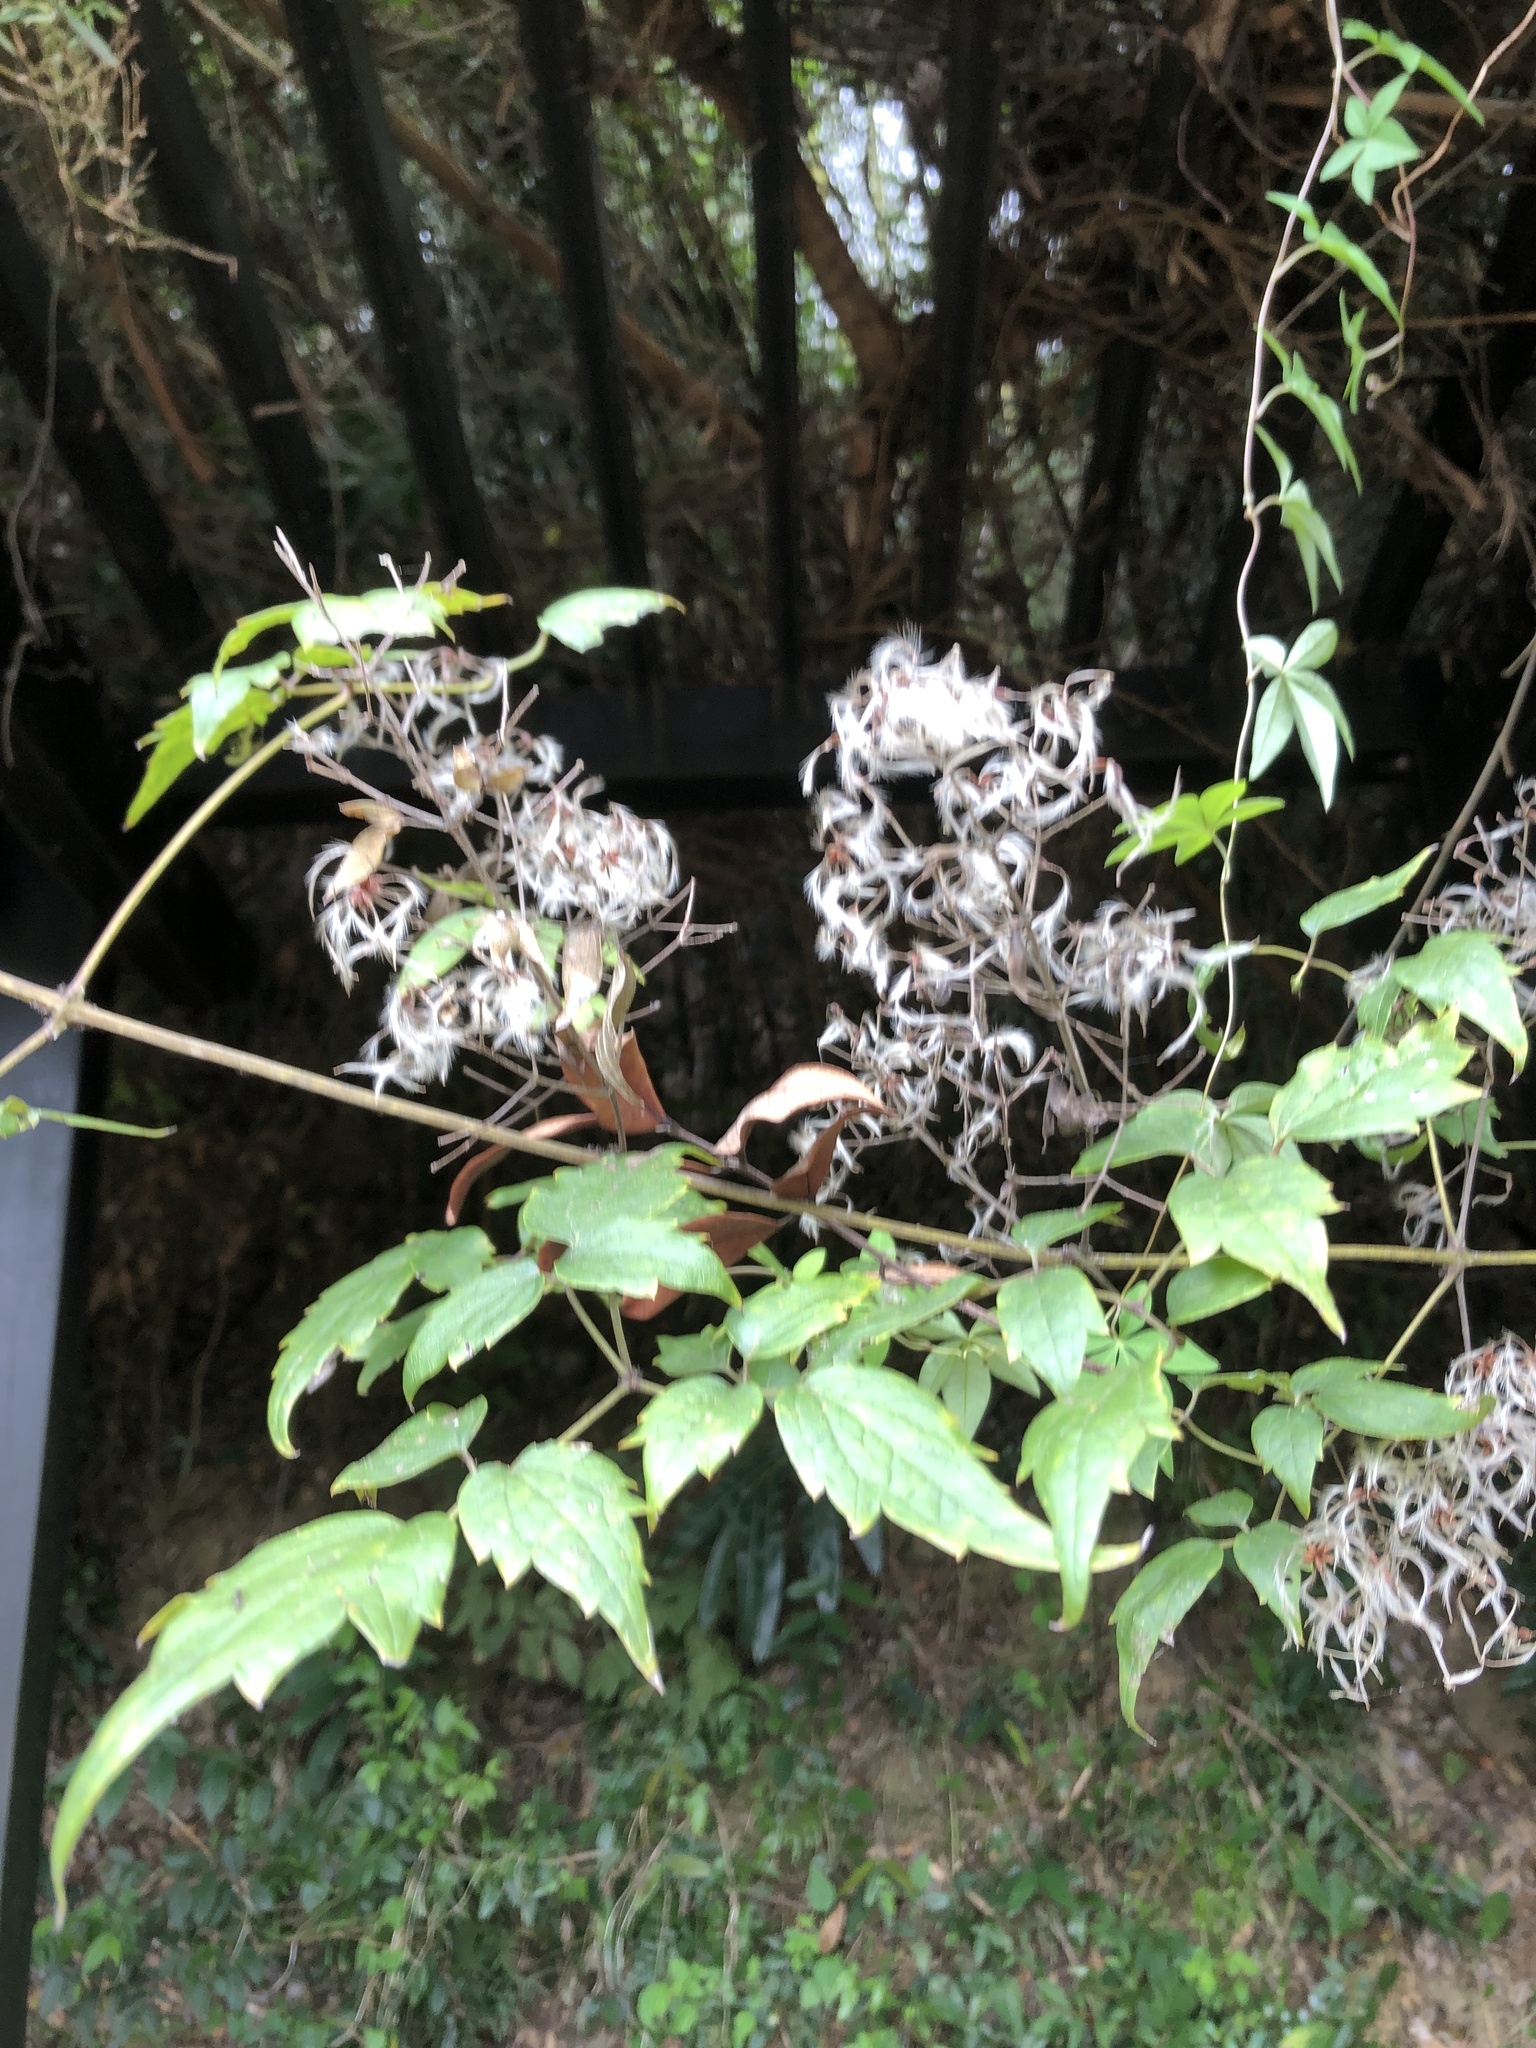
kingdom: Plantae
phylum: Tracheophyta
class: Magnoliopsida
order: Ranunculales
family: Ranunculaceae
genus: Clematis
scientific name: Clematis grata
